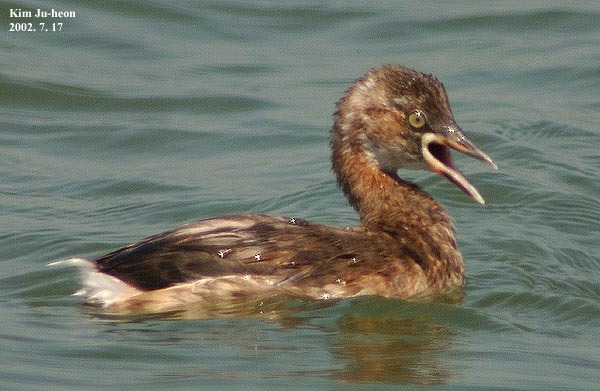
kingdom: Animalia
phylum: Chordata
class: Aves
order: Podicipediformes
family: Podicipedidae
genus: Tachybaptus
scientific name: Tachybaptus ruficollis
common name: Little grebe
